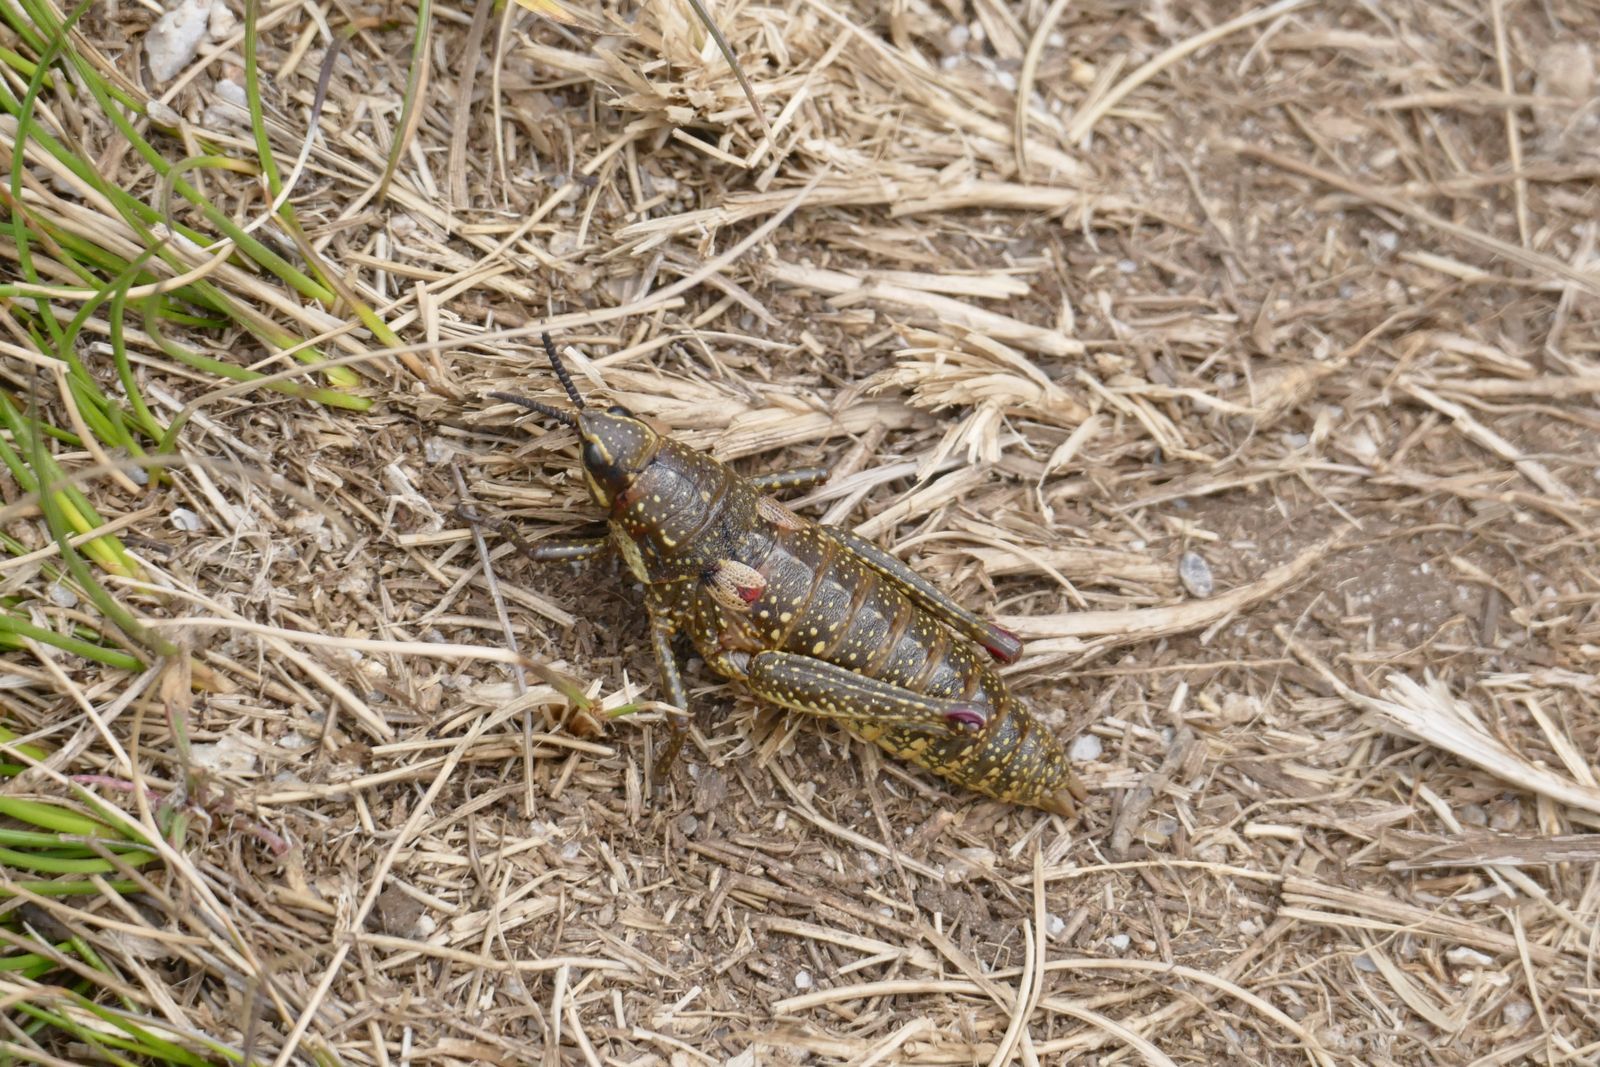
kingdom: Animalia
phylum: Arthropoda
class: Insecta
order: Orthoptera
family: Pyrgomorphidae
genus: Monistria
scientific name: Monistria concinna
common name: Southern pyrgomorph
